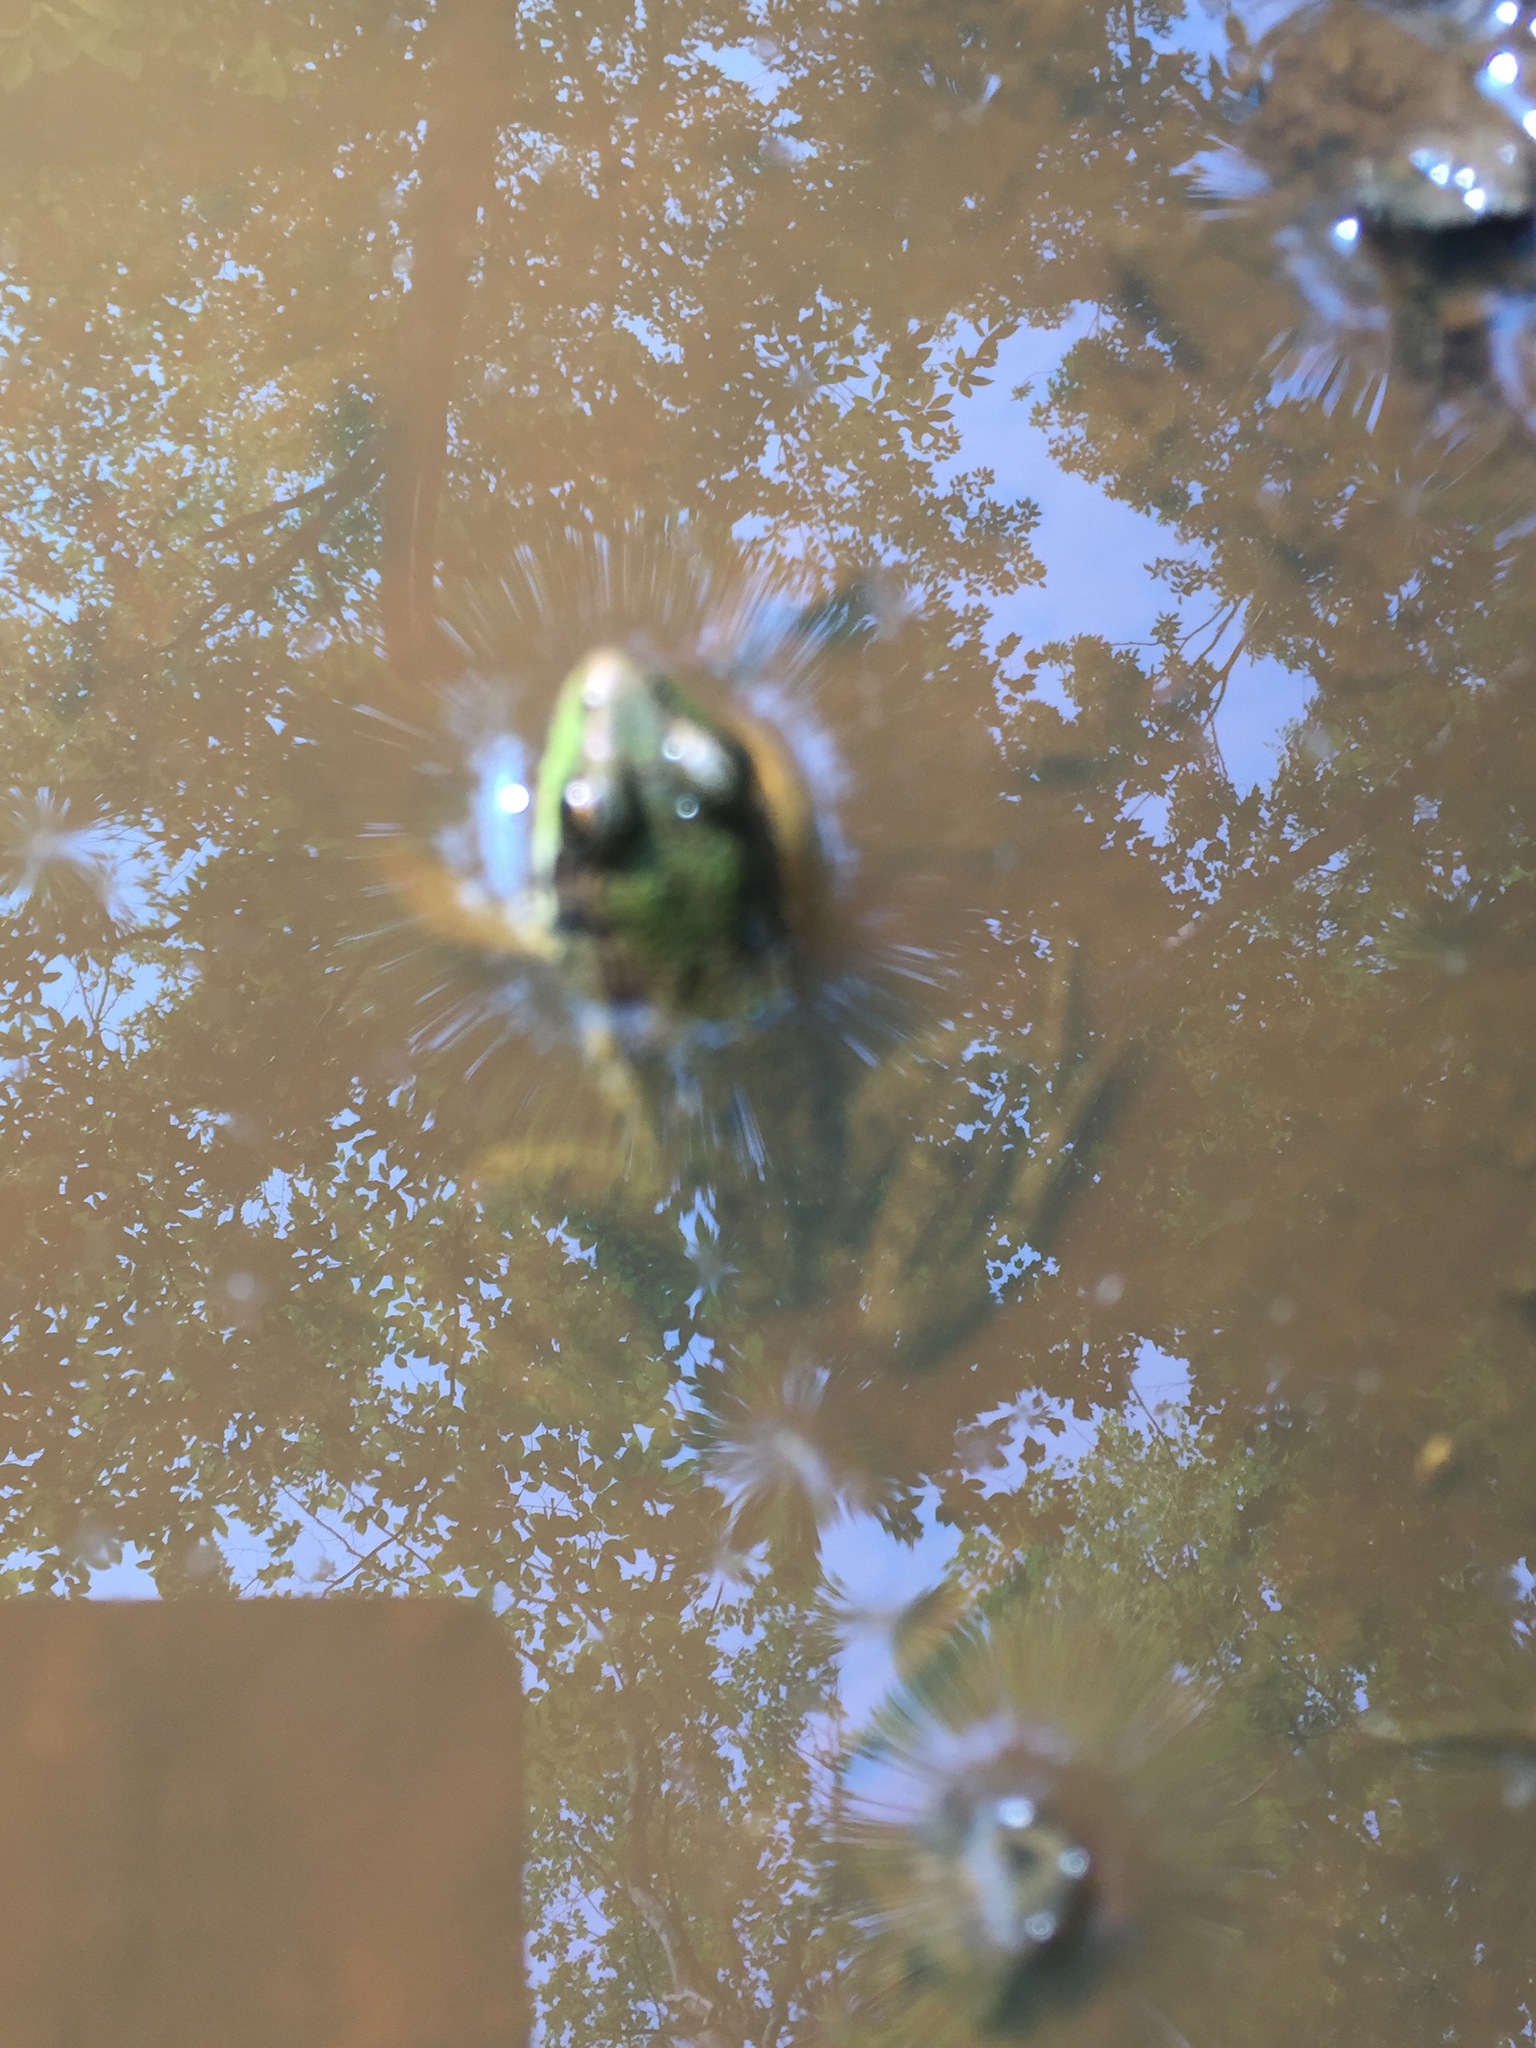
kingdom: Animalia
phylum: Chordata
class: Amphibia
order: Anura
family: Ranidae
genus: Lithobates
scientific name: Lithobates clamitans
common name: Green frog
